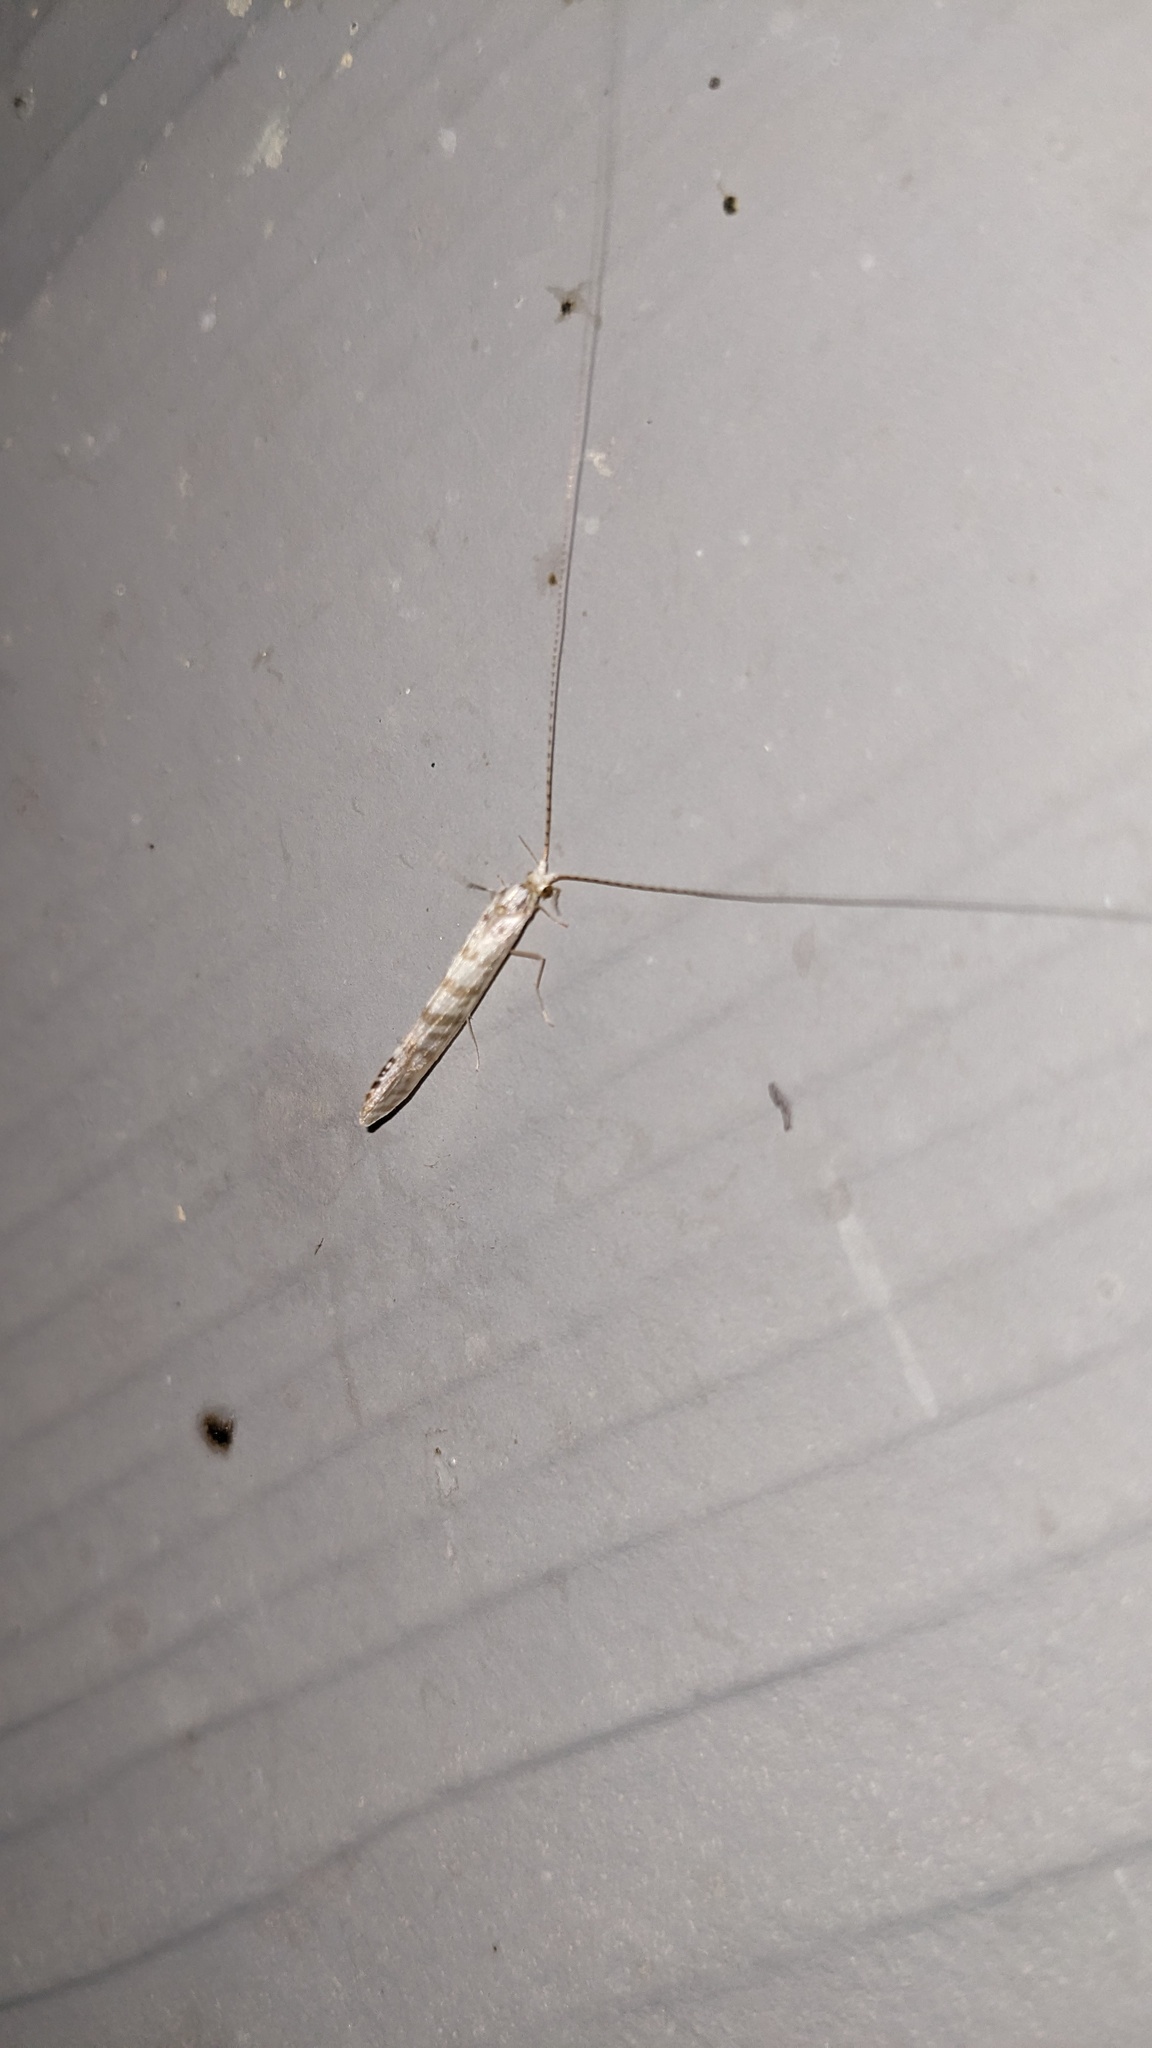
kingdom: Animalia
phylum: Arthropoda
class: Insecta
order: Trichoptera
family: Leptoceridae
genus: Nectopsyche
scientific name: Nectopsyche exquisita
